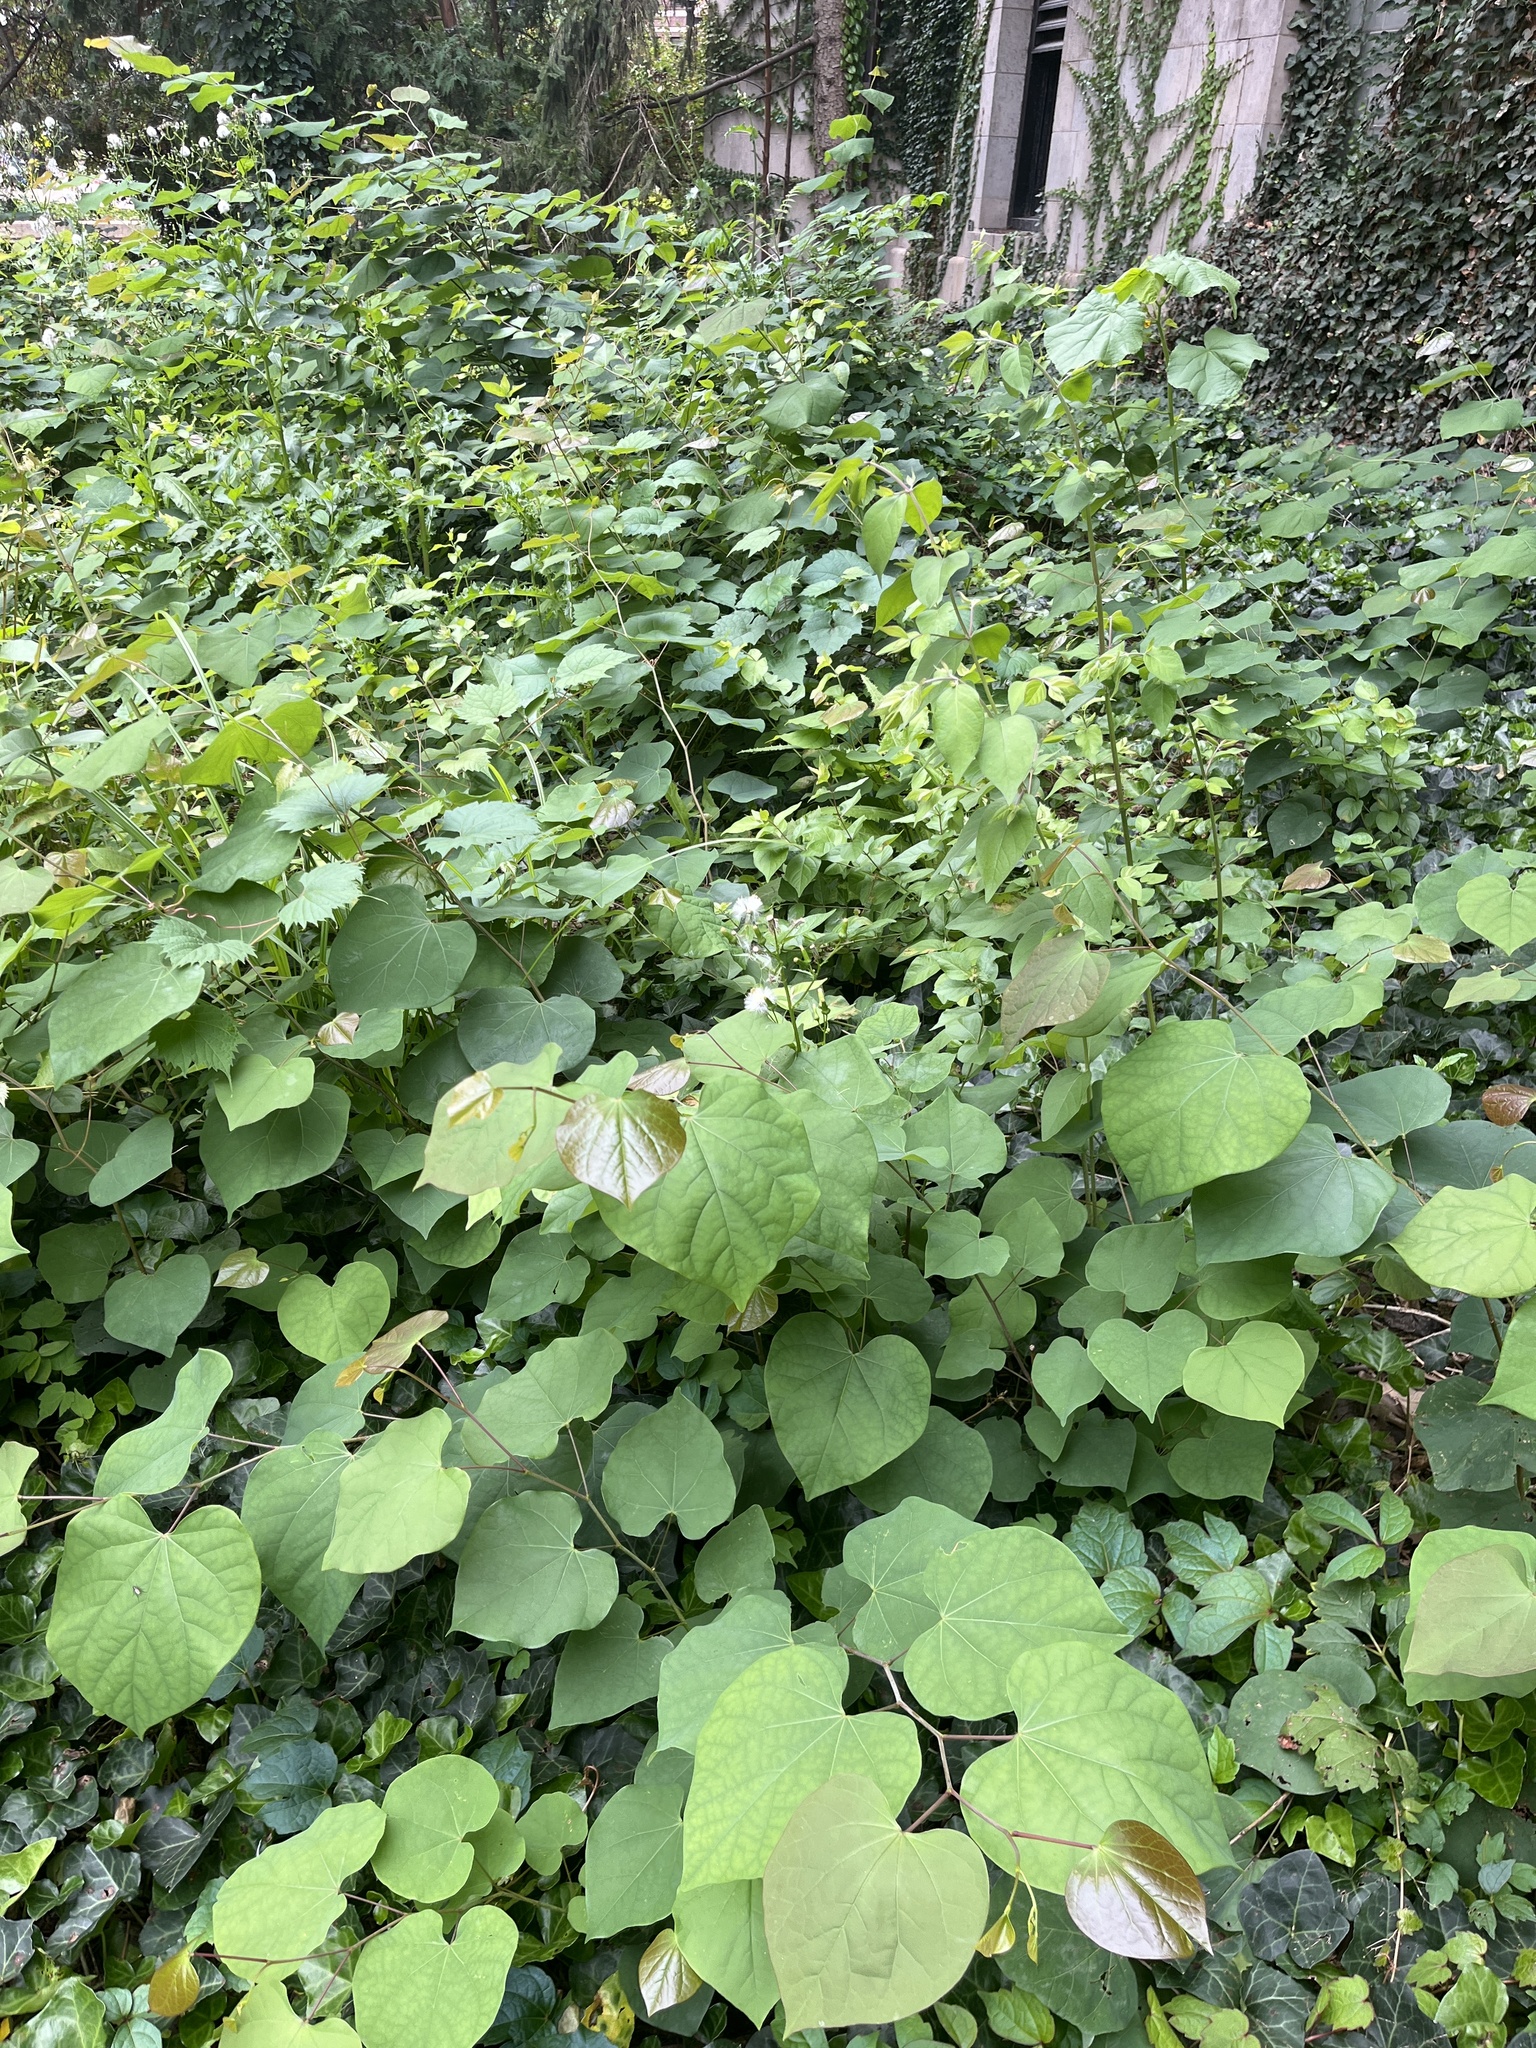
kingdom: Plantae
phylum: Tracheophyta
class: Magnoliopsida
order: Fabales
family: Fabaceae
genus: Cercis
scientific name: Cercis canadensis
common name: Eastern redbud
